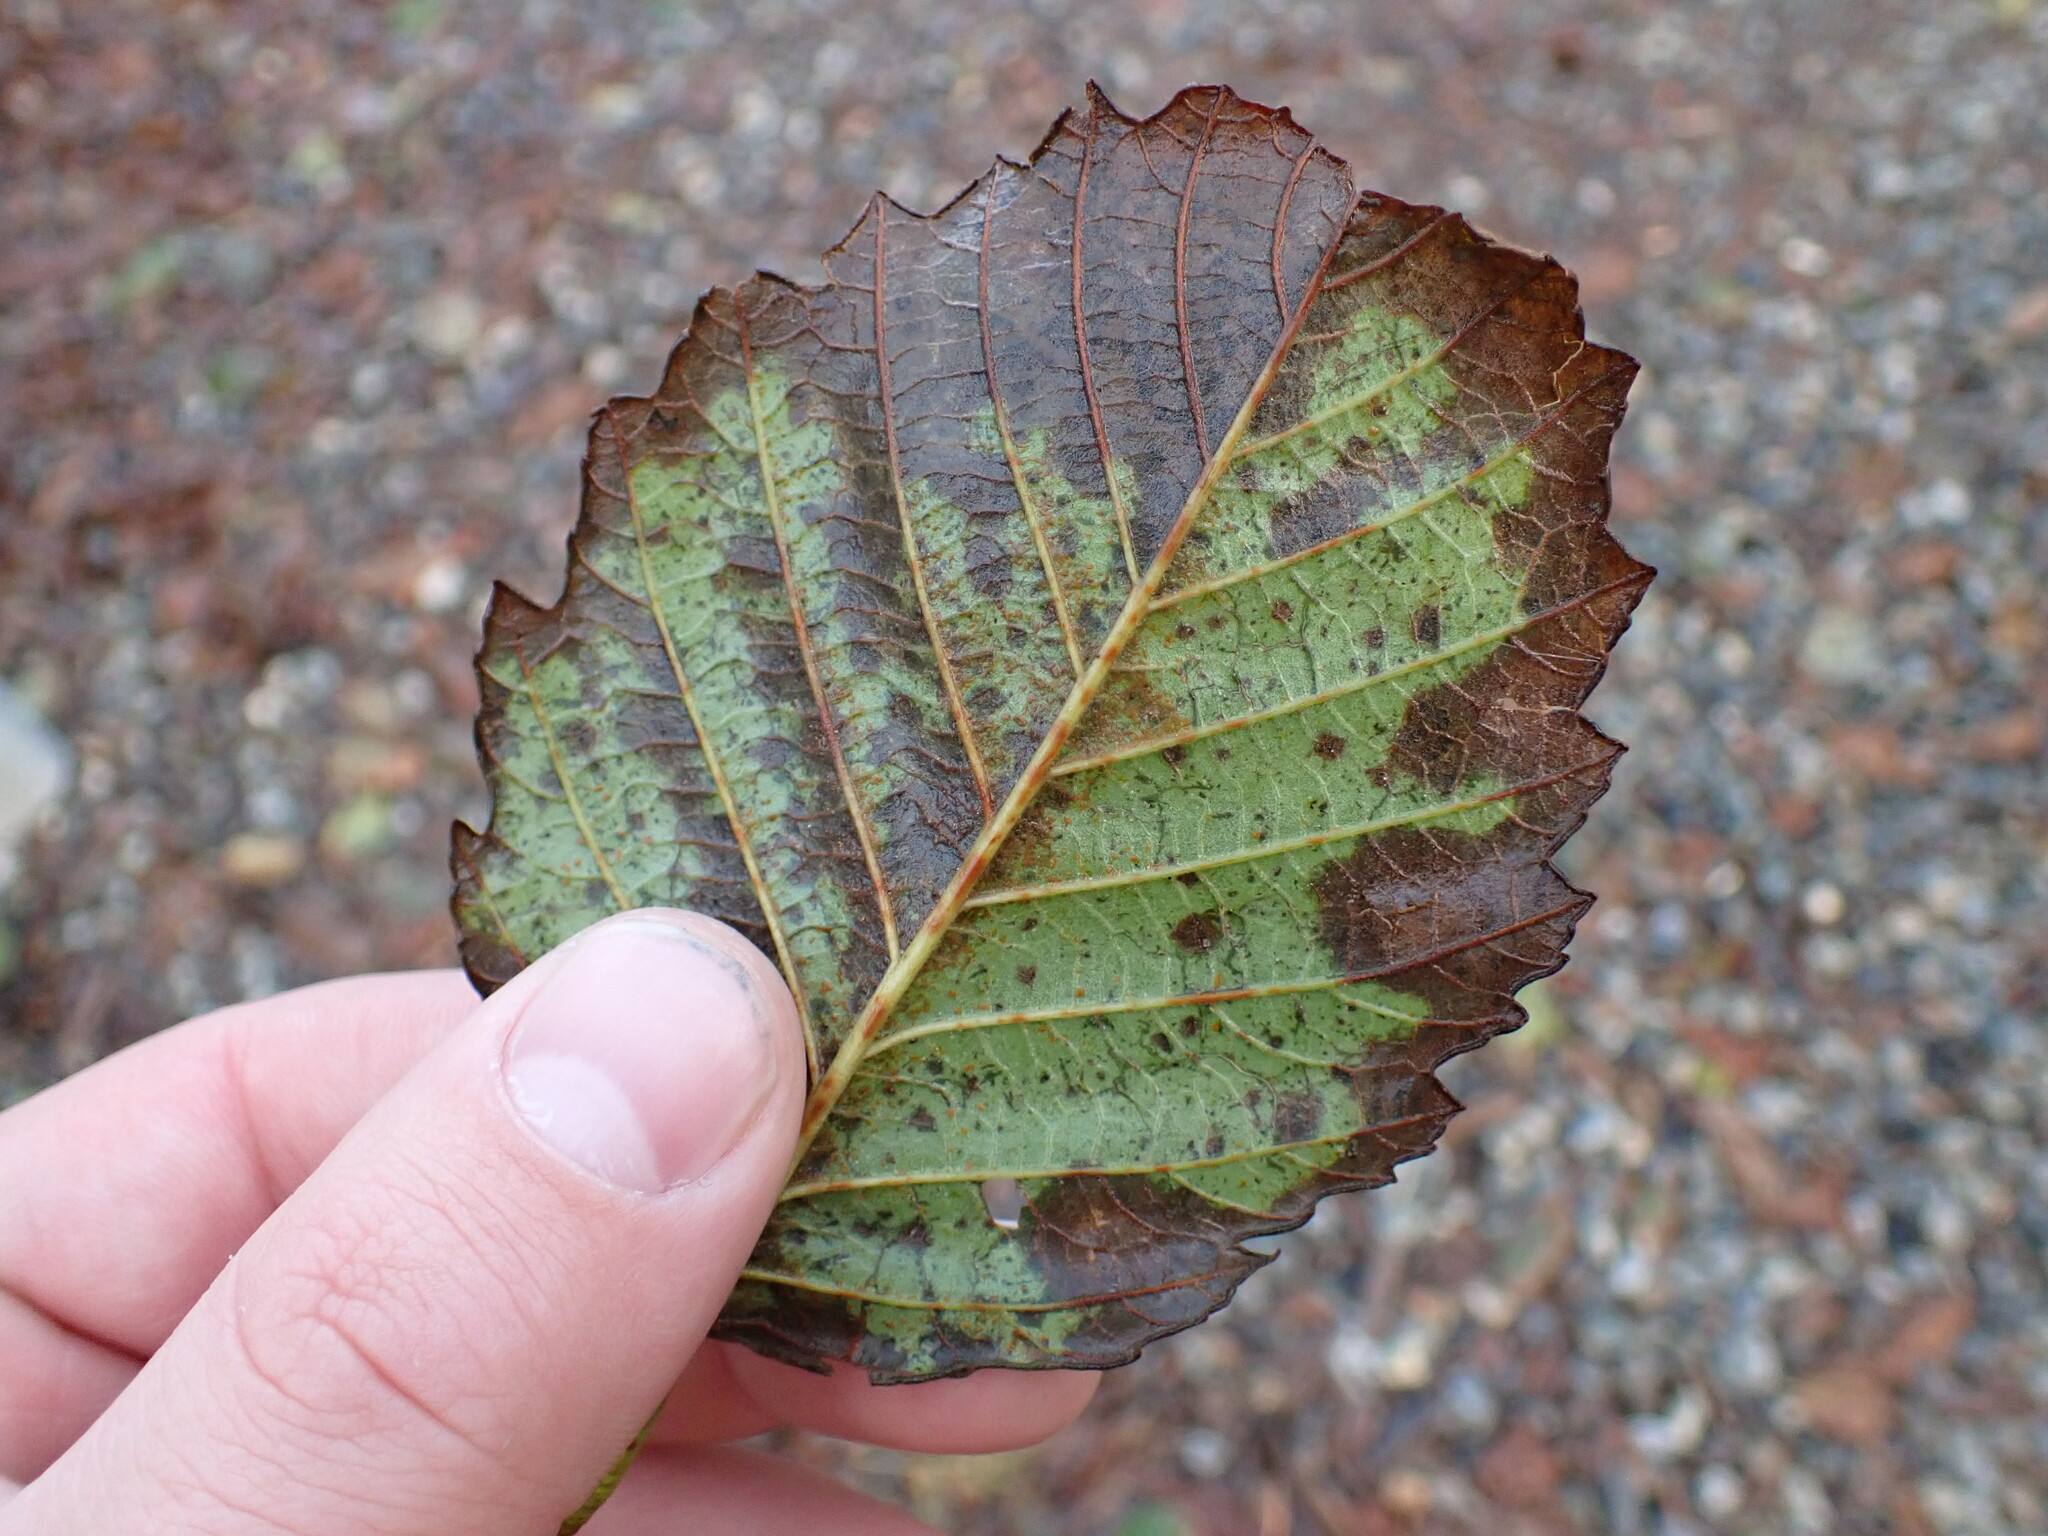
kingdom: Plantae
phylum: Tracheophyta
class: Magnoliopsida
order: Fagales
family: Betulaceae
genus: Alnus
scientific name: Alnus rubra
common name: Red alder
